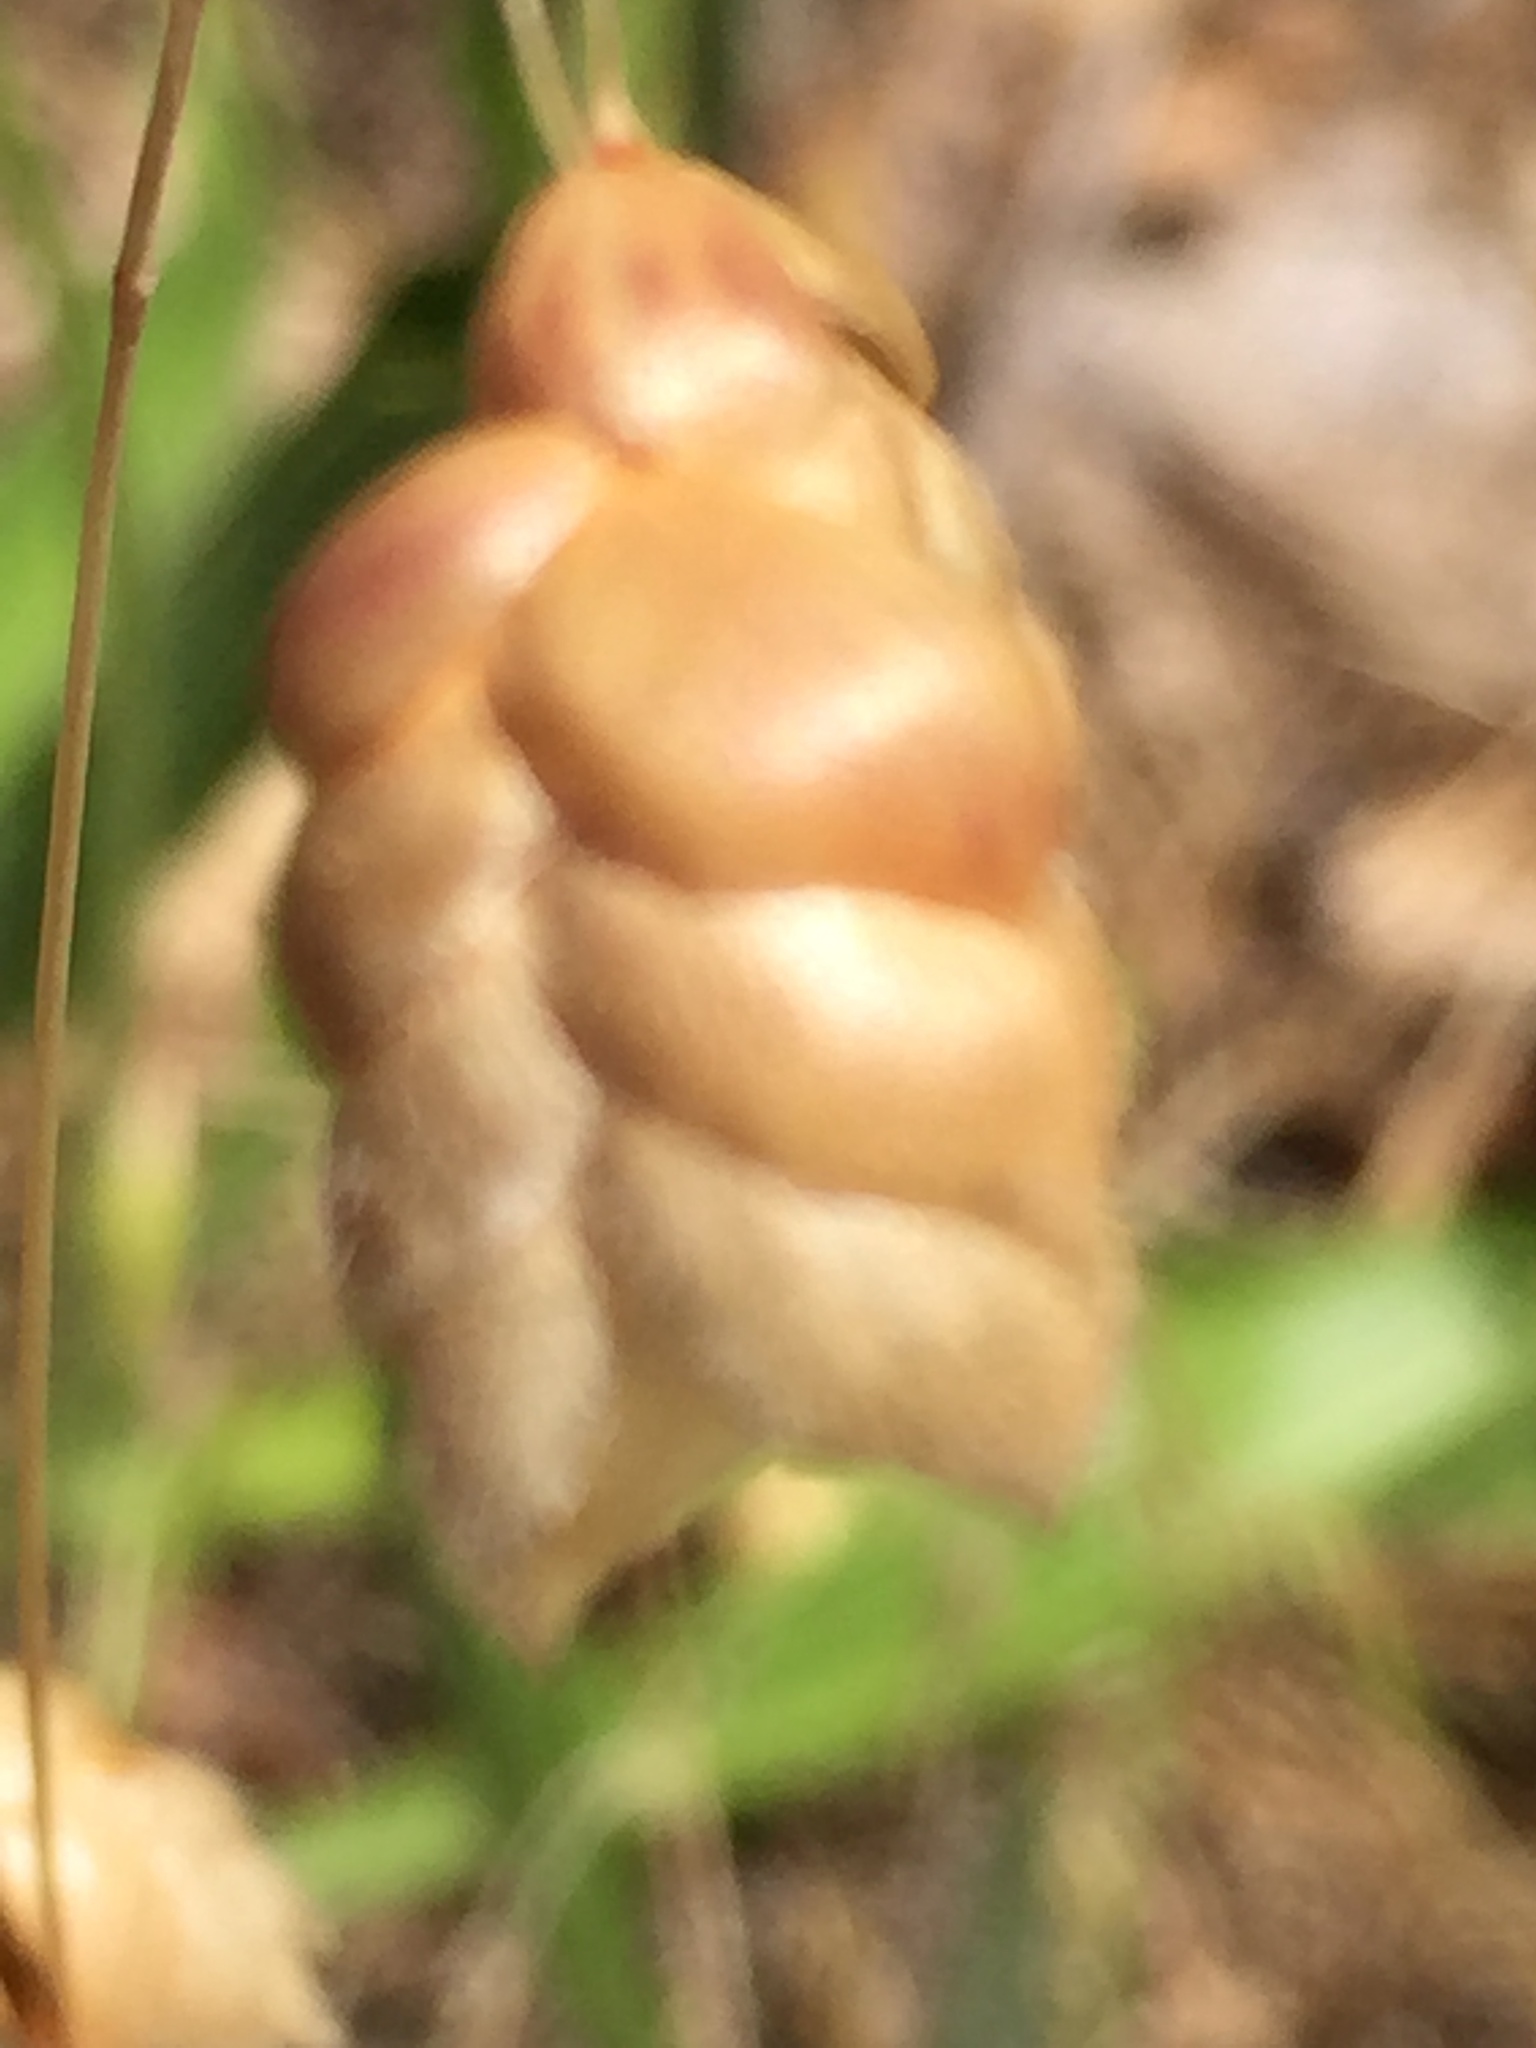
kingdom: Plantae
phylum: Tracheophyta
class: Liliopsida
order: Poales
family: Poaceae
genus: Briza
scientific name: Briza maxima
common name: Big quakinggrass
